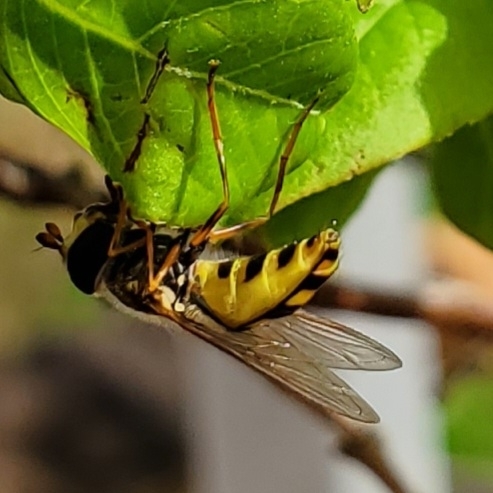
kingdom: Animalia
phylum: Arthropoda
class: Insecta
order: Diptera
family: Syrphidae
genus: Eupeodes
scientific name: Eupeodes
